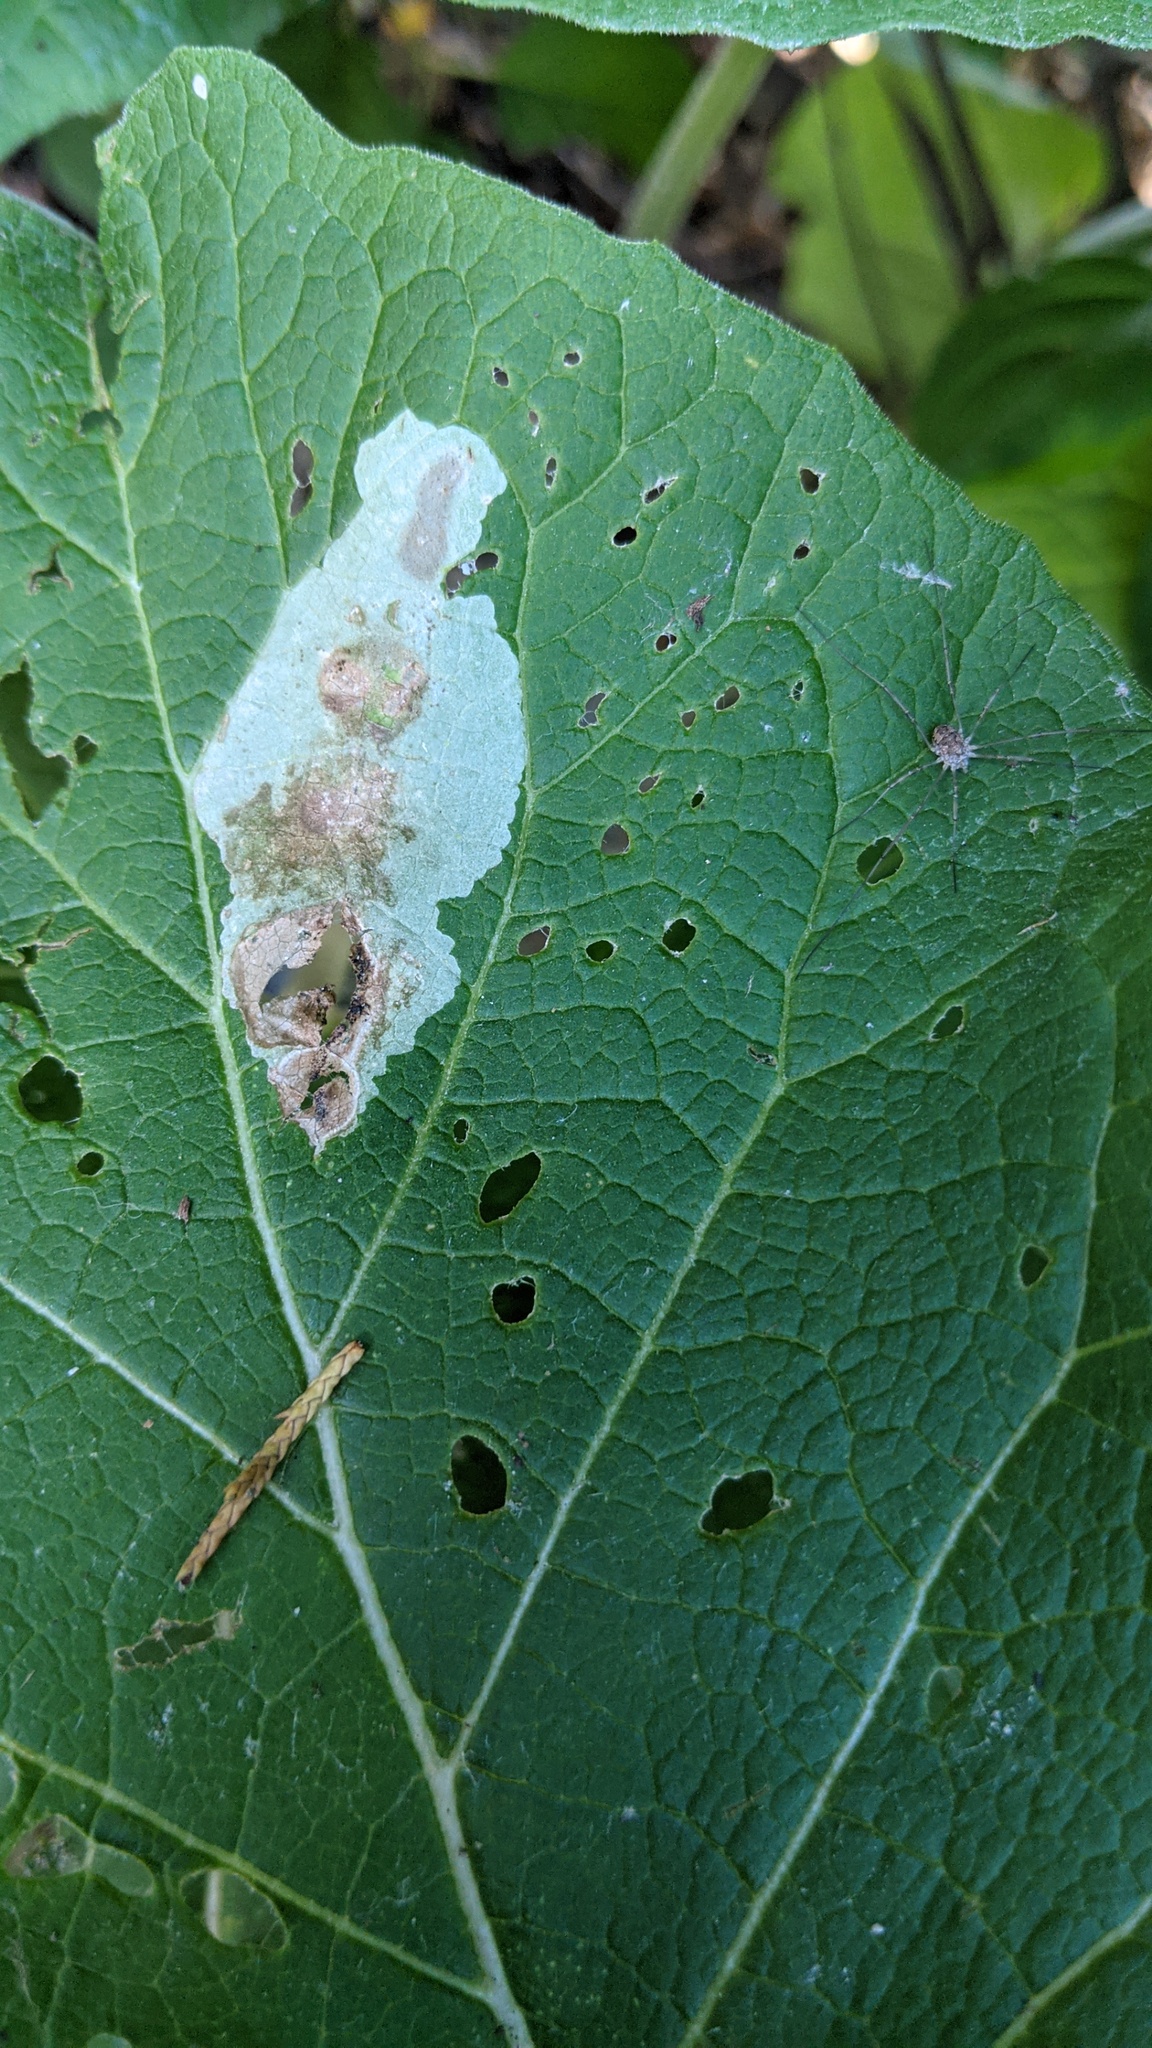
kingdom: Animalia
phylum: Arthropoda
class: Insecta
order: Diptera
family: Agromyzidae
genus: Calycomyza
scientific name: Calycomyza flavinotum
